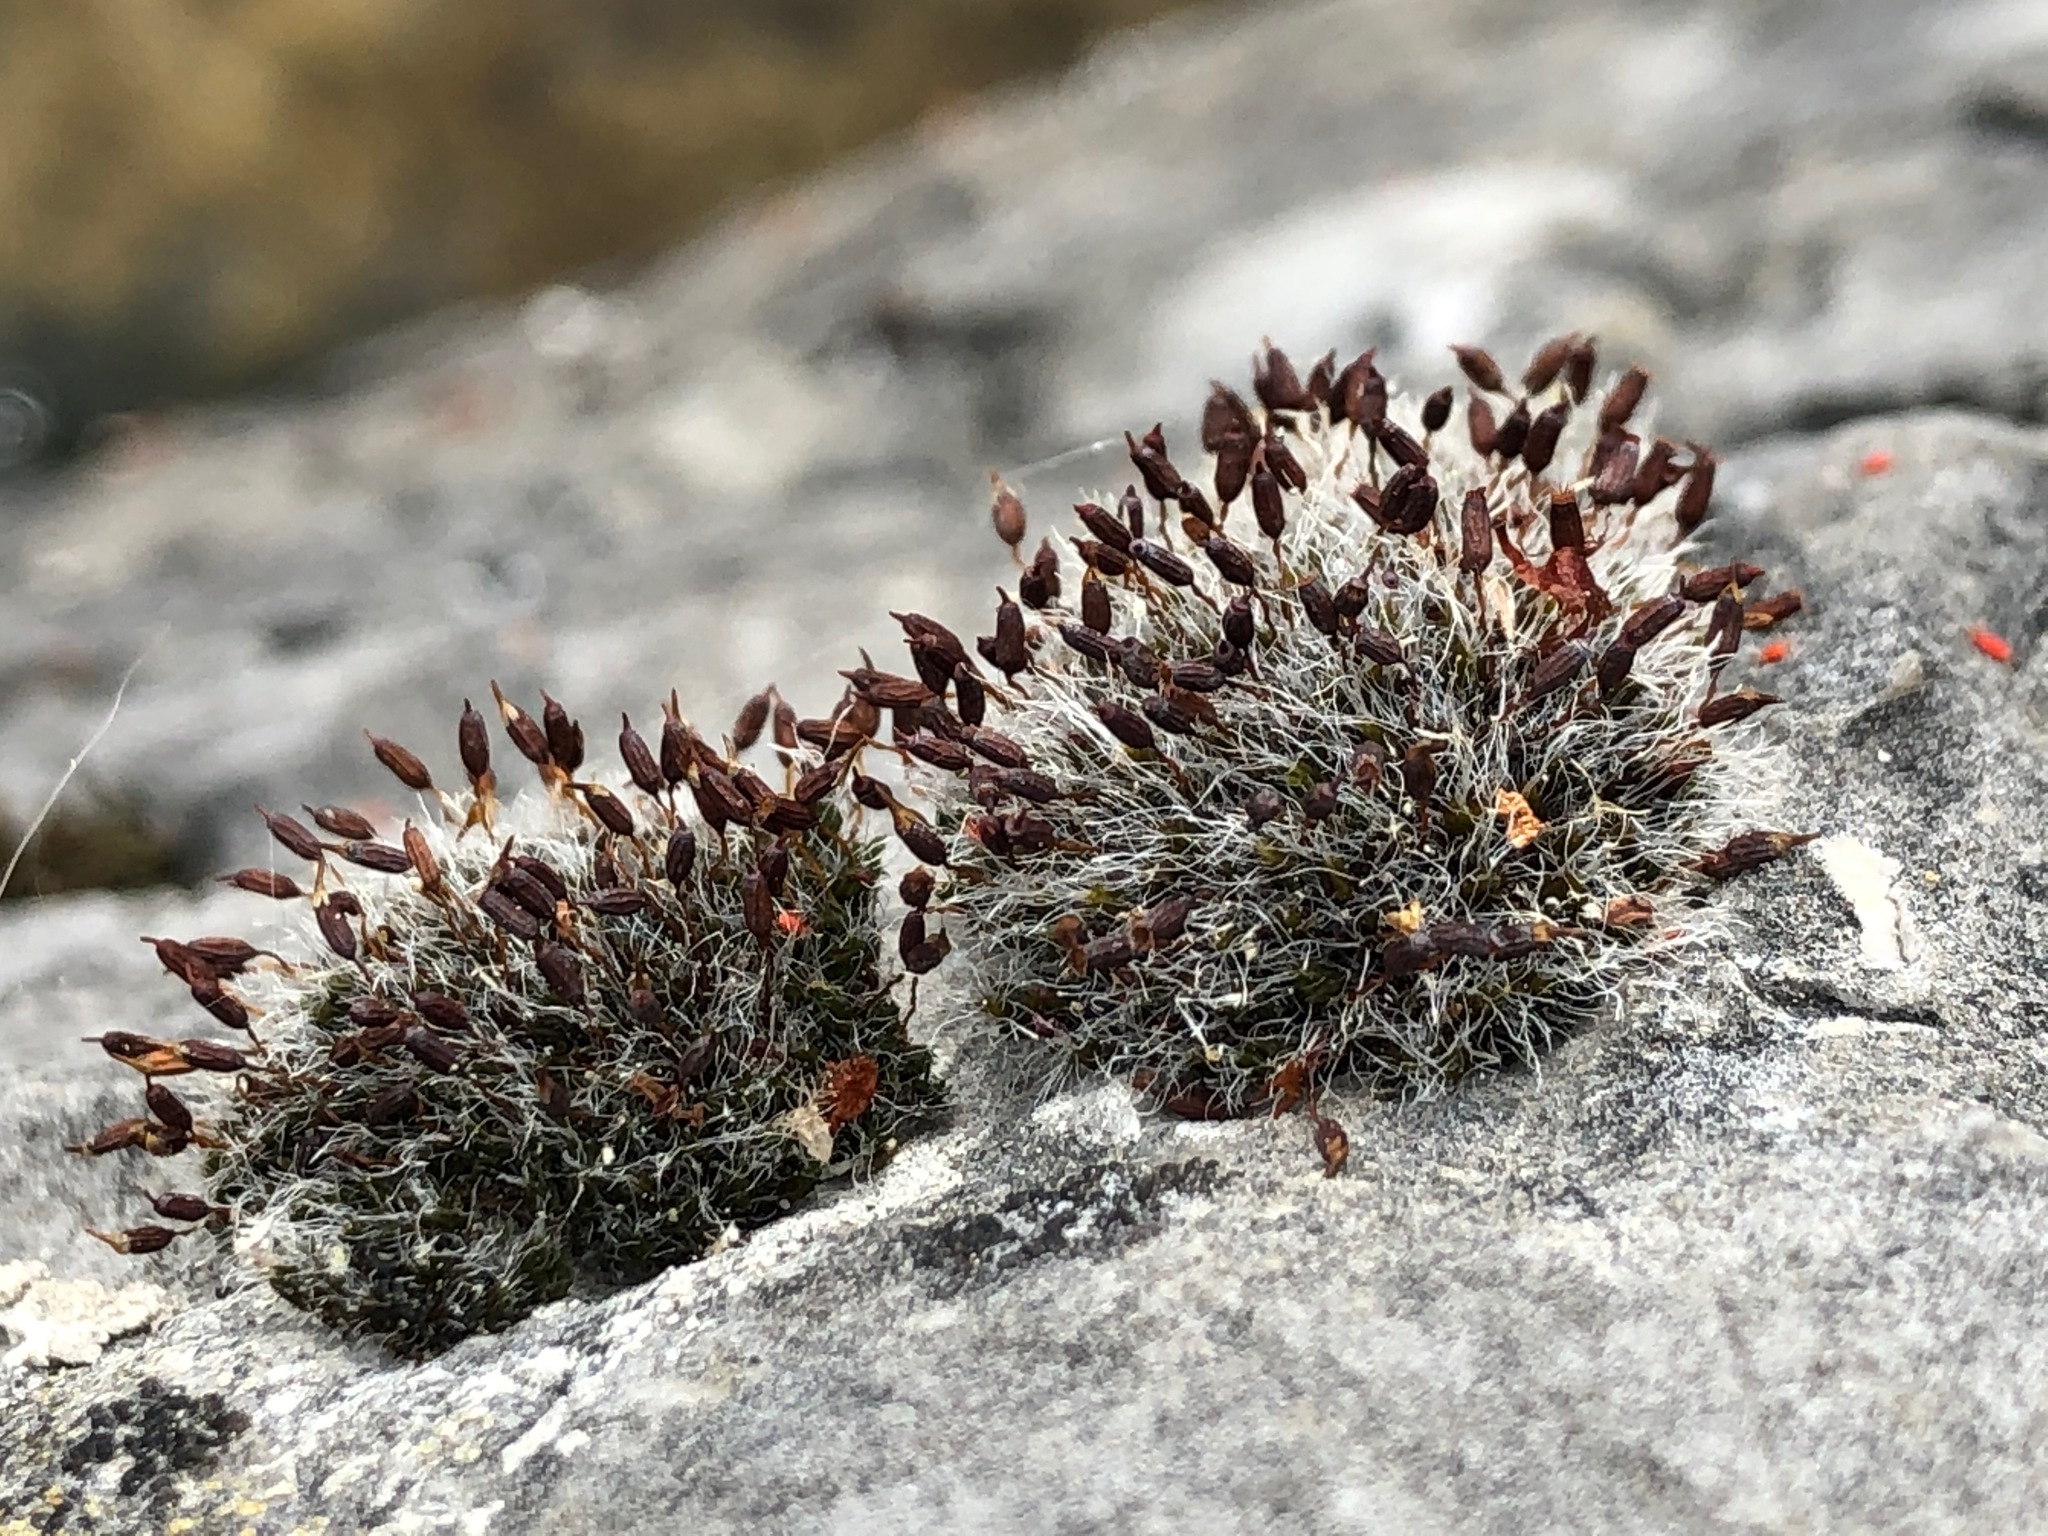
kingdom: Plantae
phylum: Bryophyta
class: Bryopsida
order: Grimmiales
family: Grimmiaceae
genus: Grimmia
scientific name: Grimmia pulvinata
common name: Grey-cushioned grimmia
